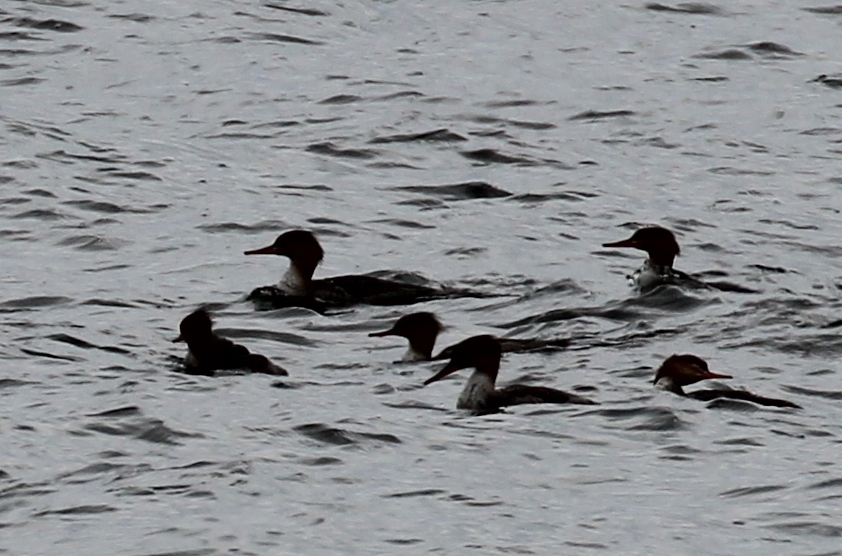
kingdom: Animalia
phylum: Chordata
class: Aves
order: Anseriformes
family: Anatidae
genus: Mergus
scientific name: Mergus serrator
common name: Red-breasted merganser
